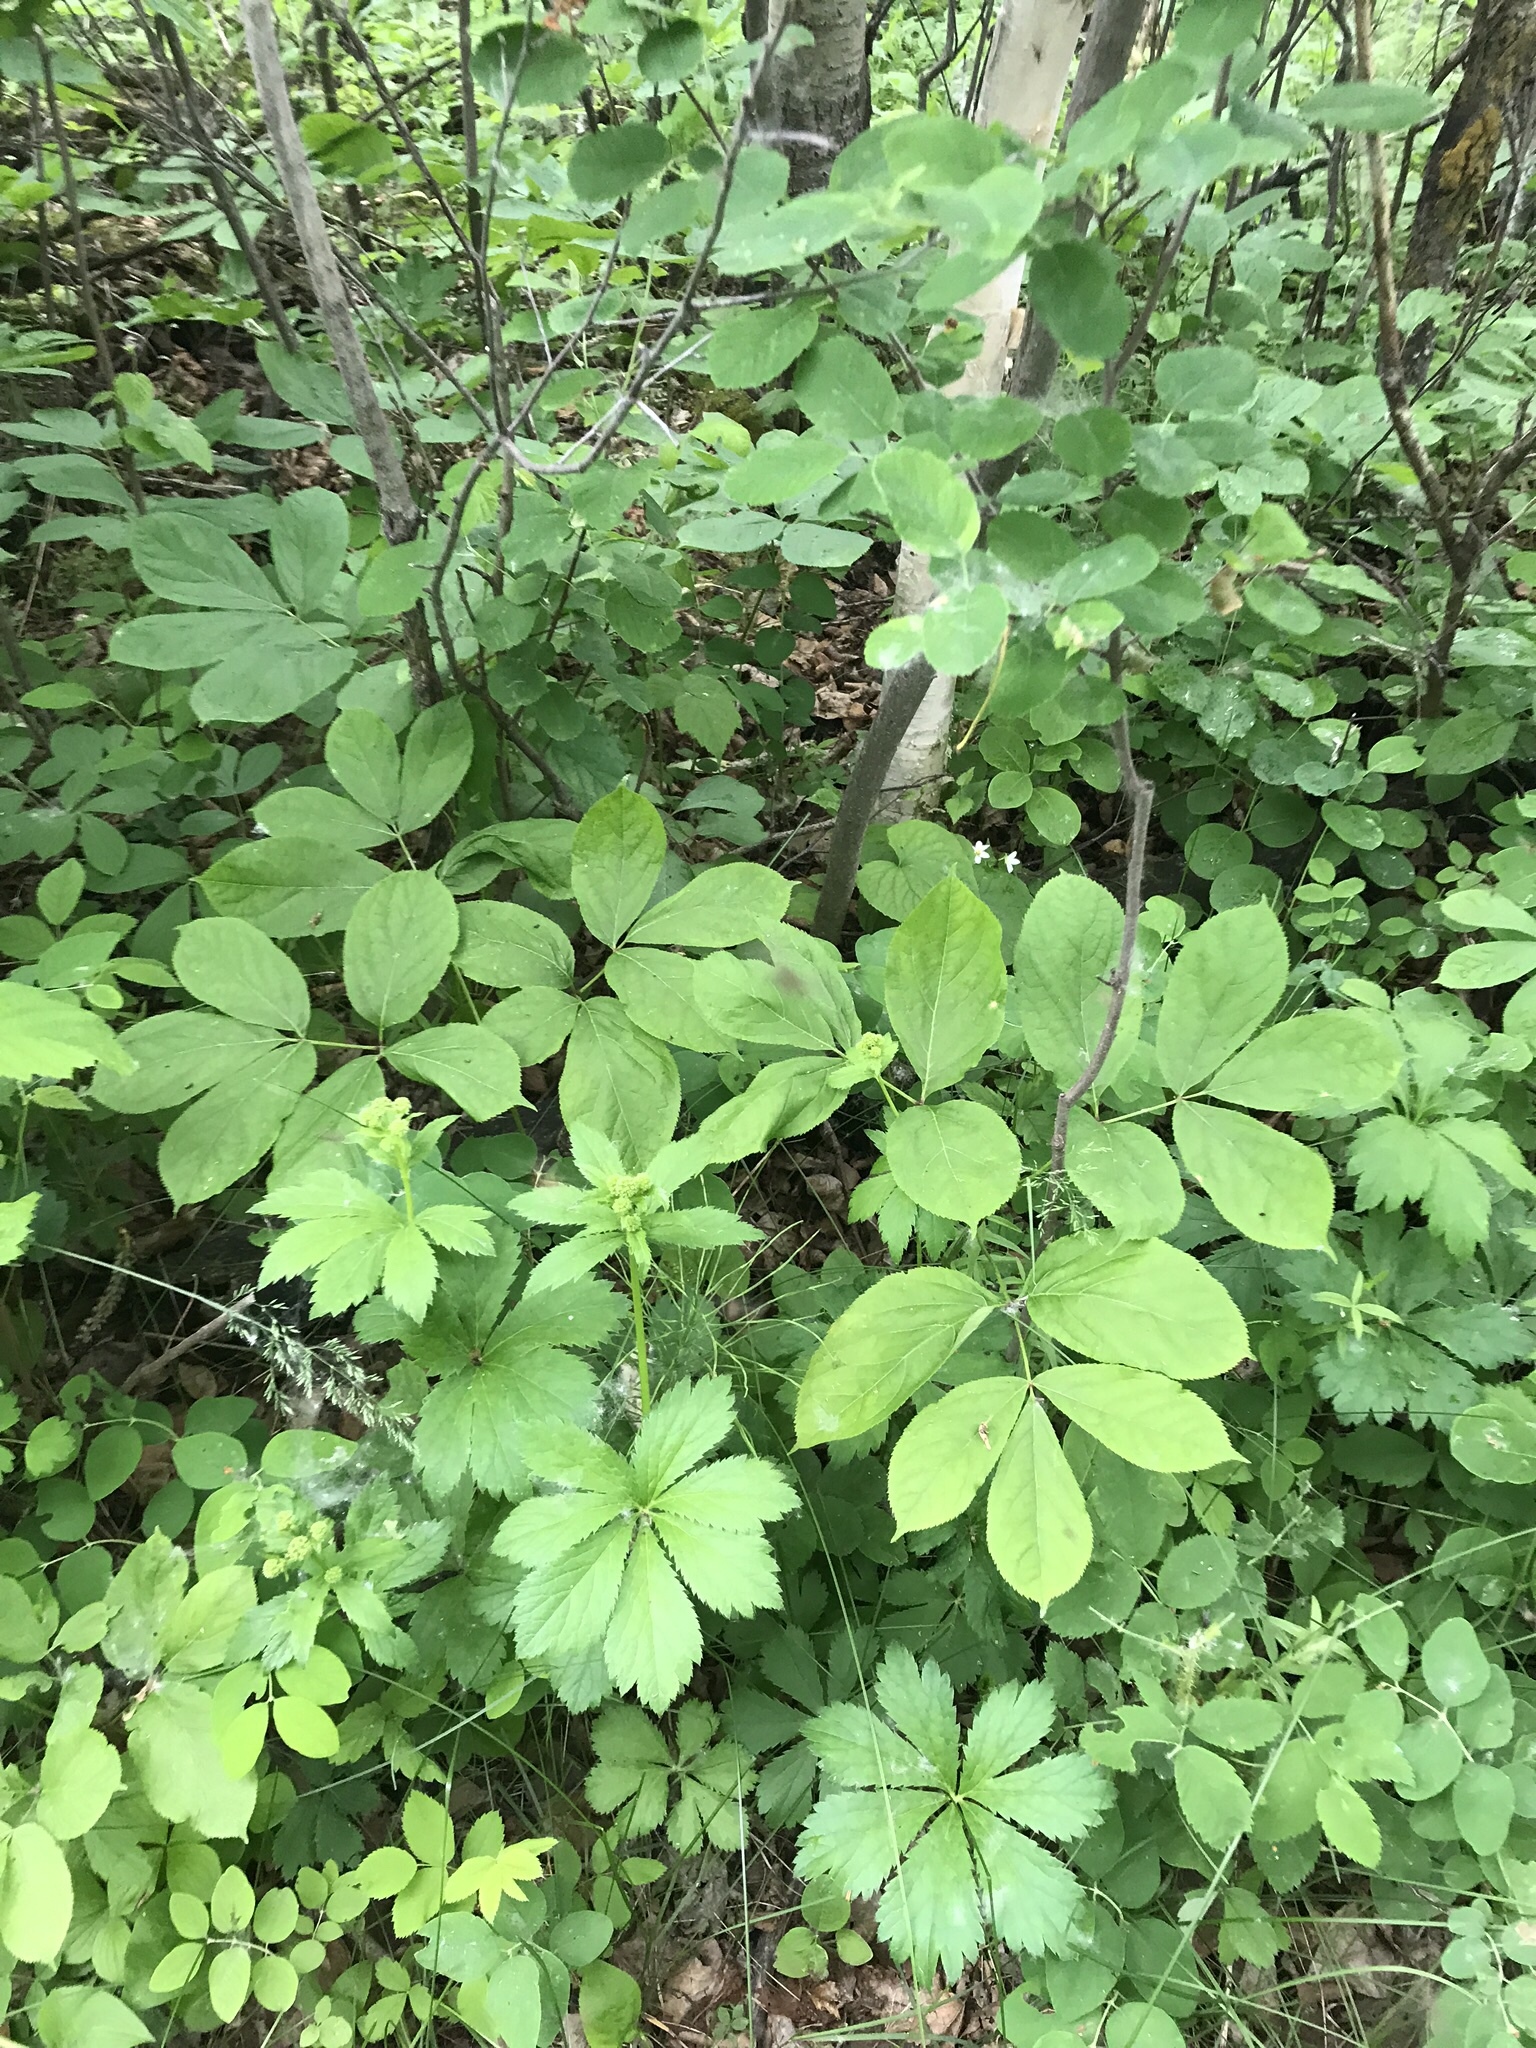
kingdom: Plantae
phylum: Tracheophyta
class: Magnoliopsida
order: Apiales
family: Apiaceae
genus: Sanicula
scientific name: Sanicula marilandica
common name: Black snakeroot
